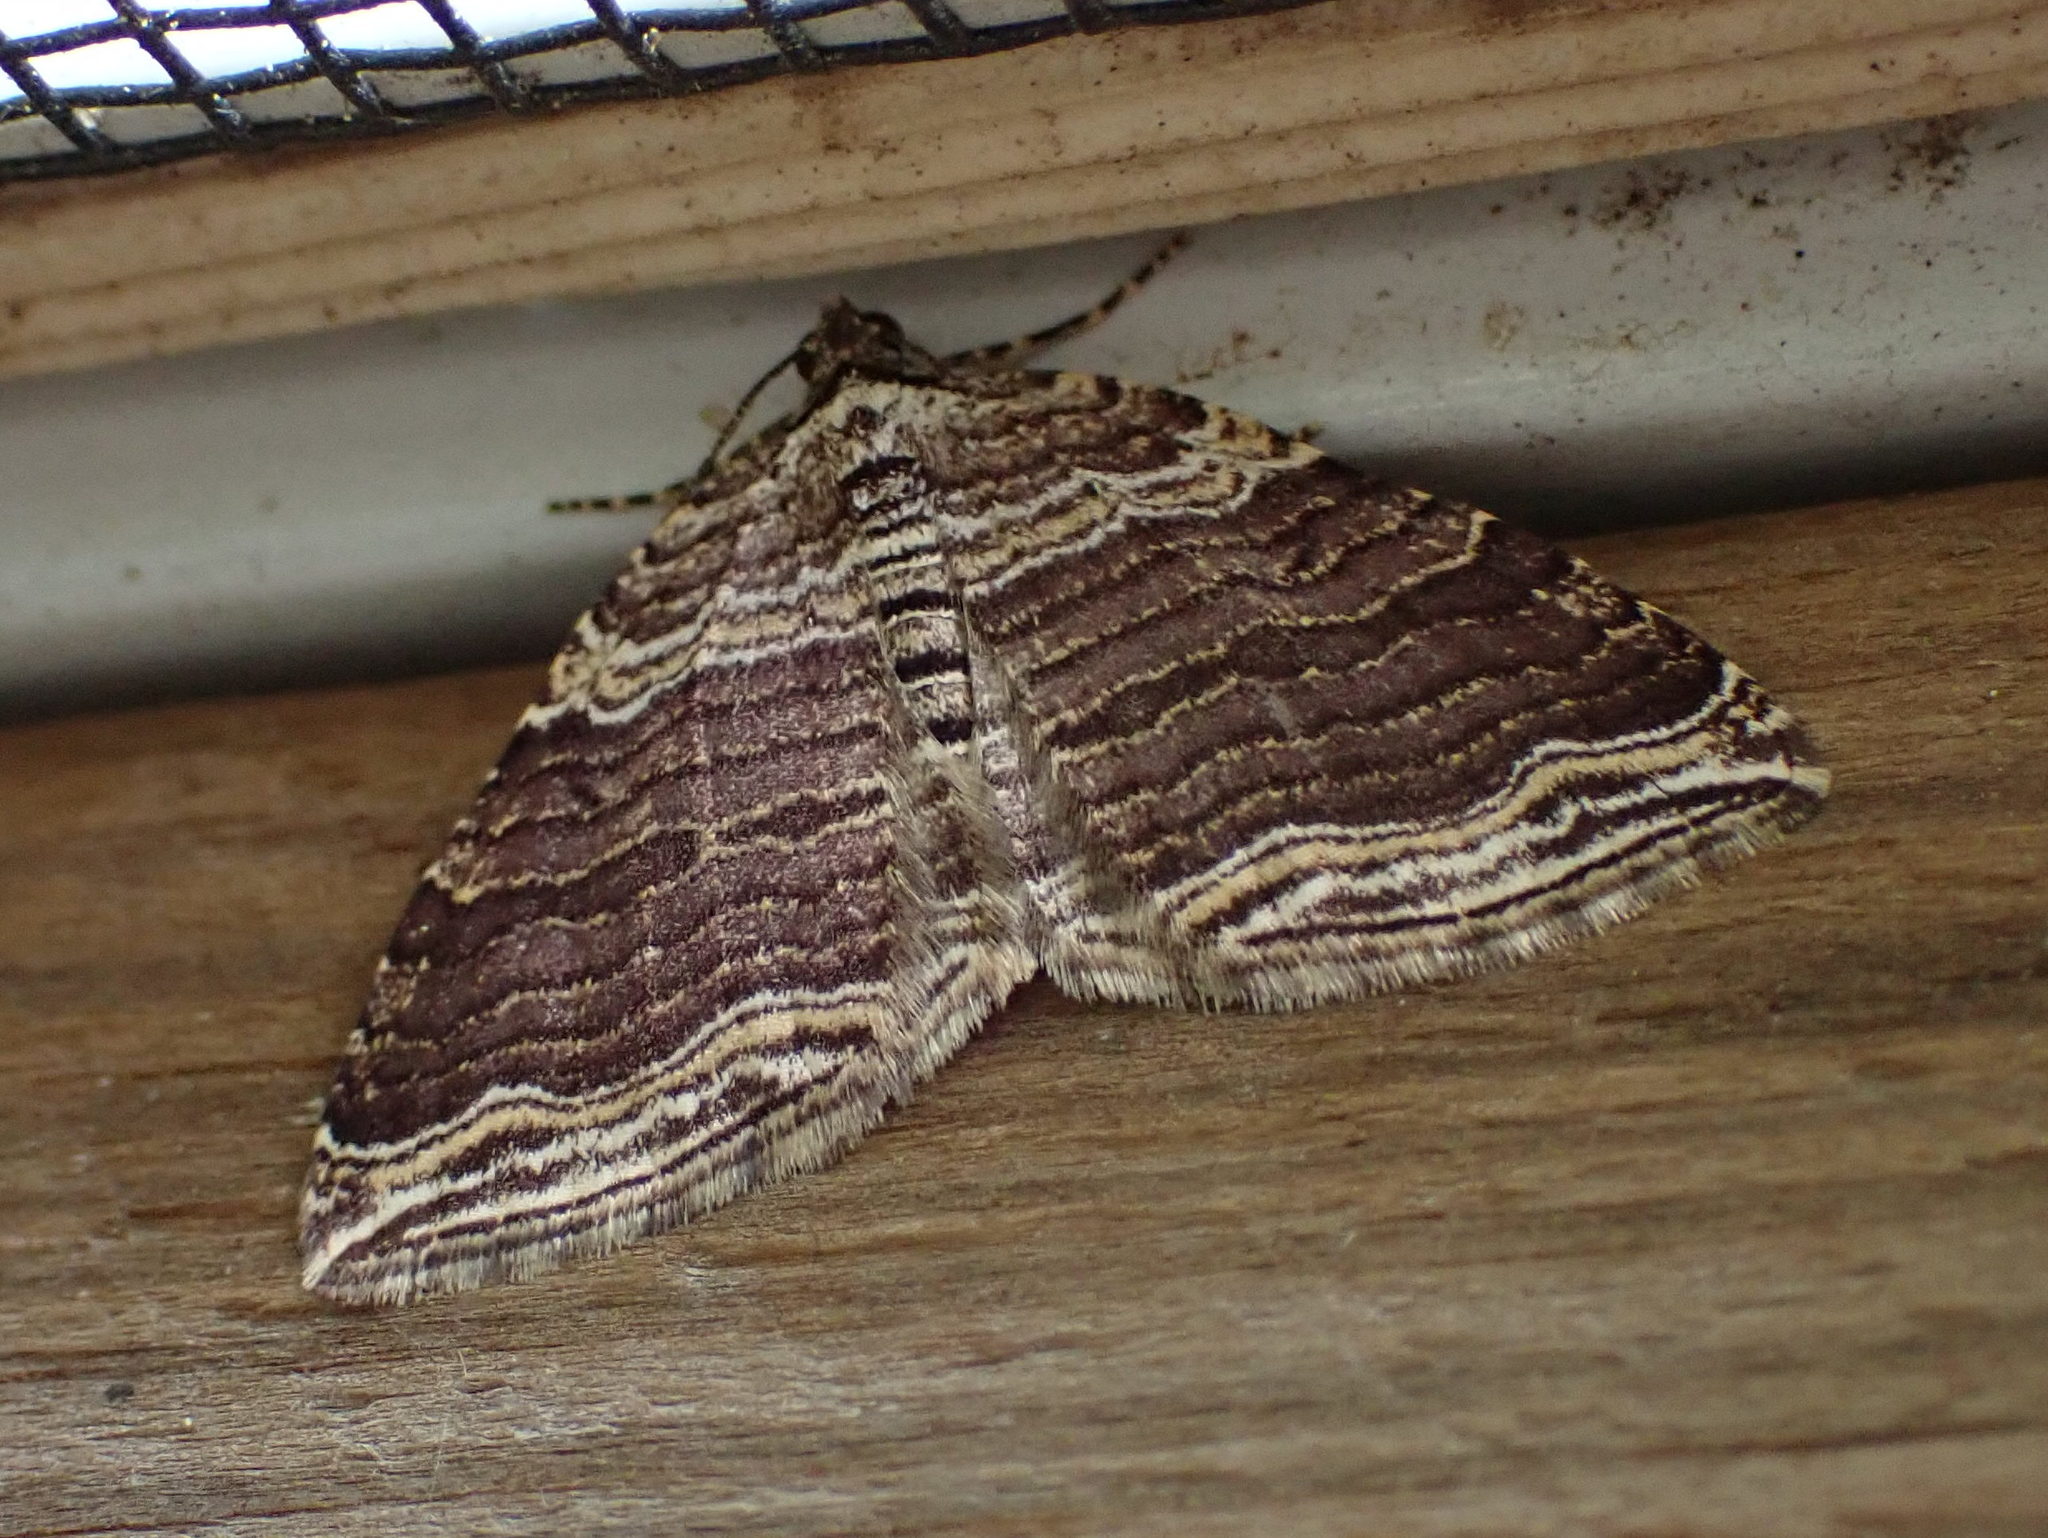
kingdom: Animalia
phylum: Arthropoda
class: Insecta
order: Lepidoptera
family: Geometridae
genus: Anticlea
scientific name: Anticlea multiferata
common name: Many-lined carpet
